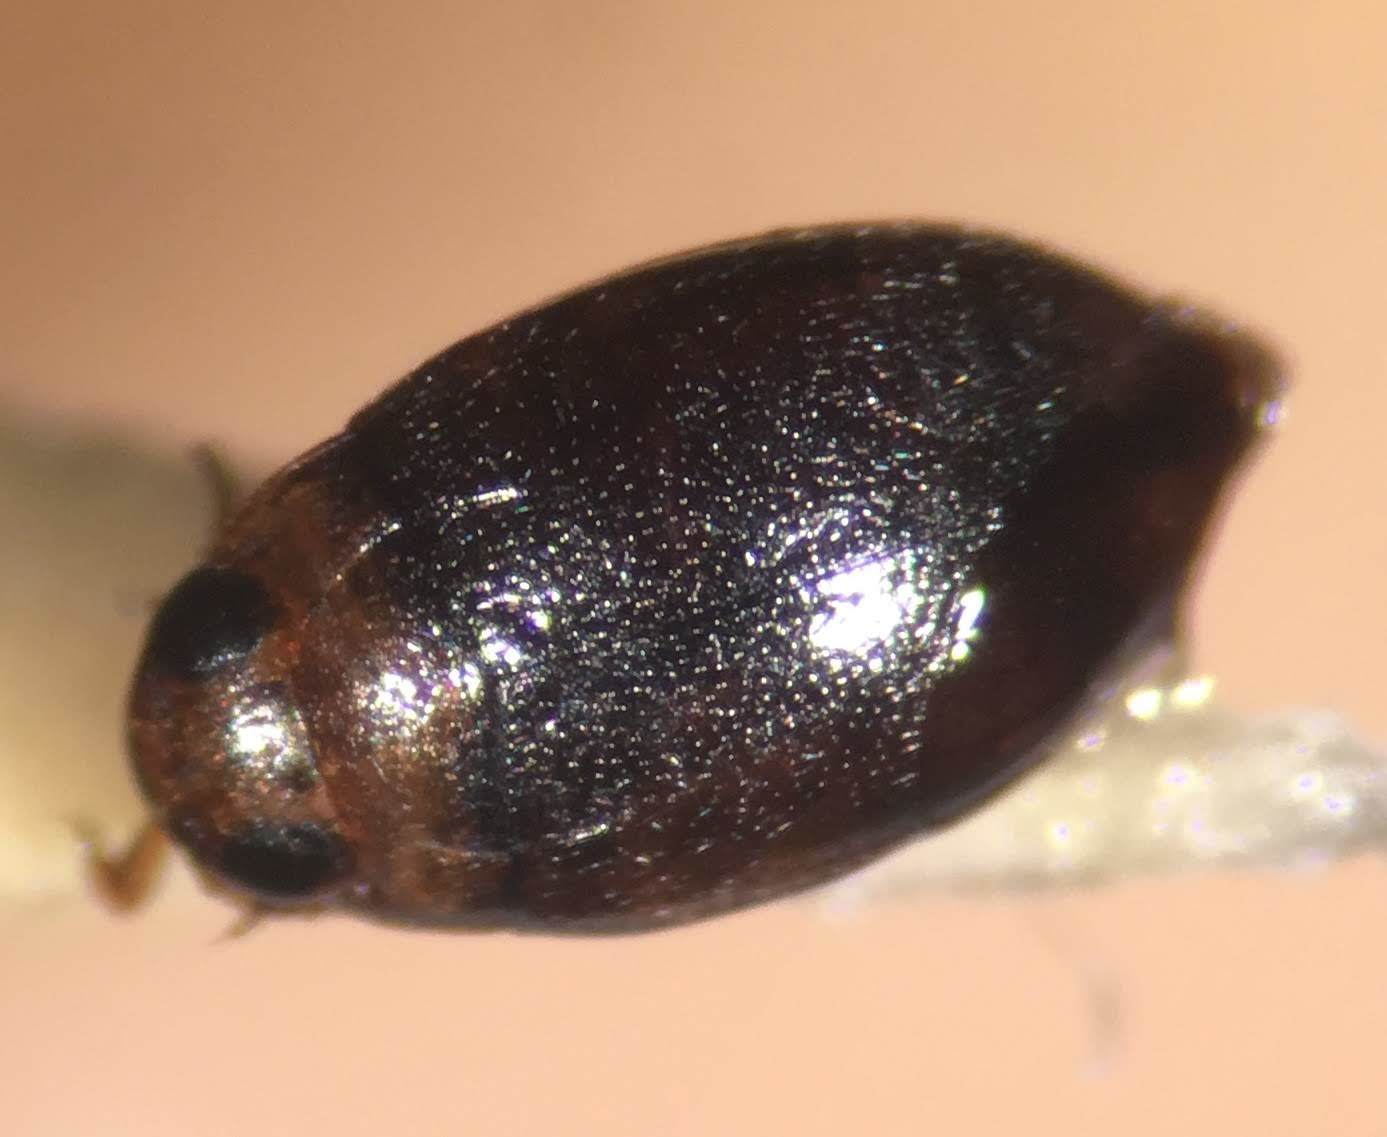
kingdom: Animalia
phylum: Arthropoda
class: Insecta
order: Coleoptera
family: Dytiscidae
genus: Uvarus
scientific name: Uvarus granarius
